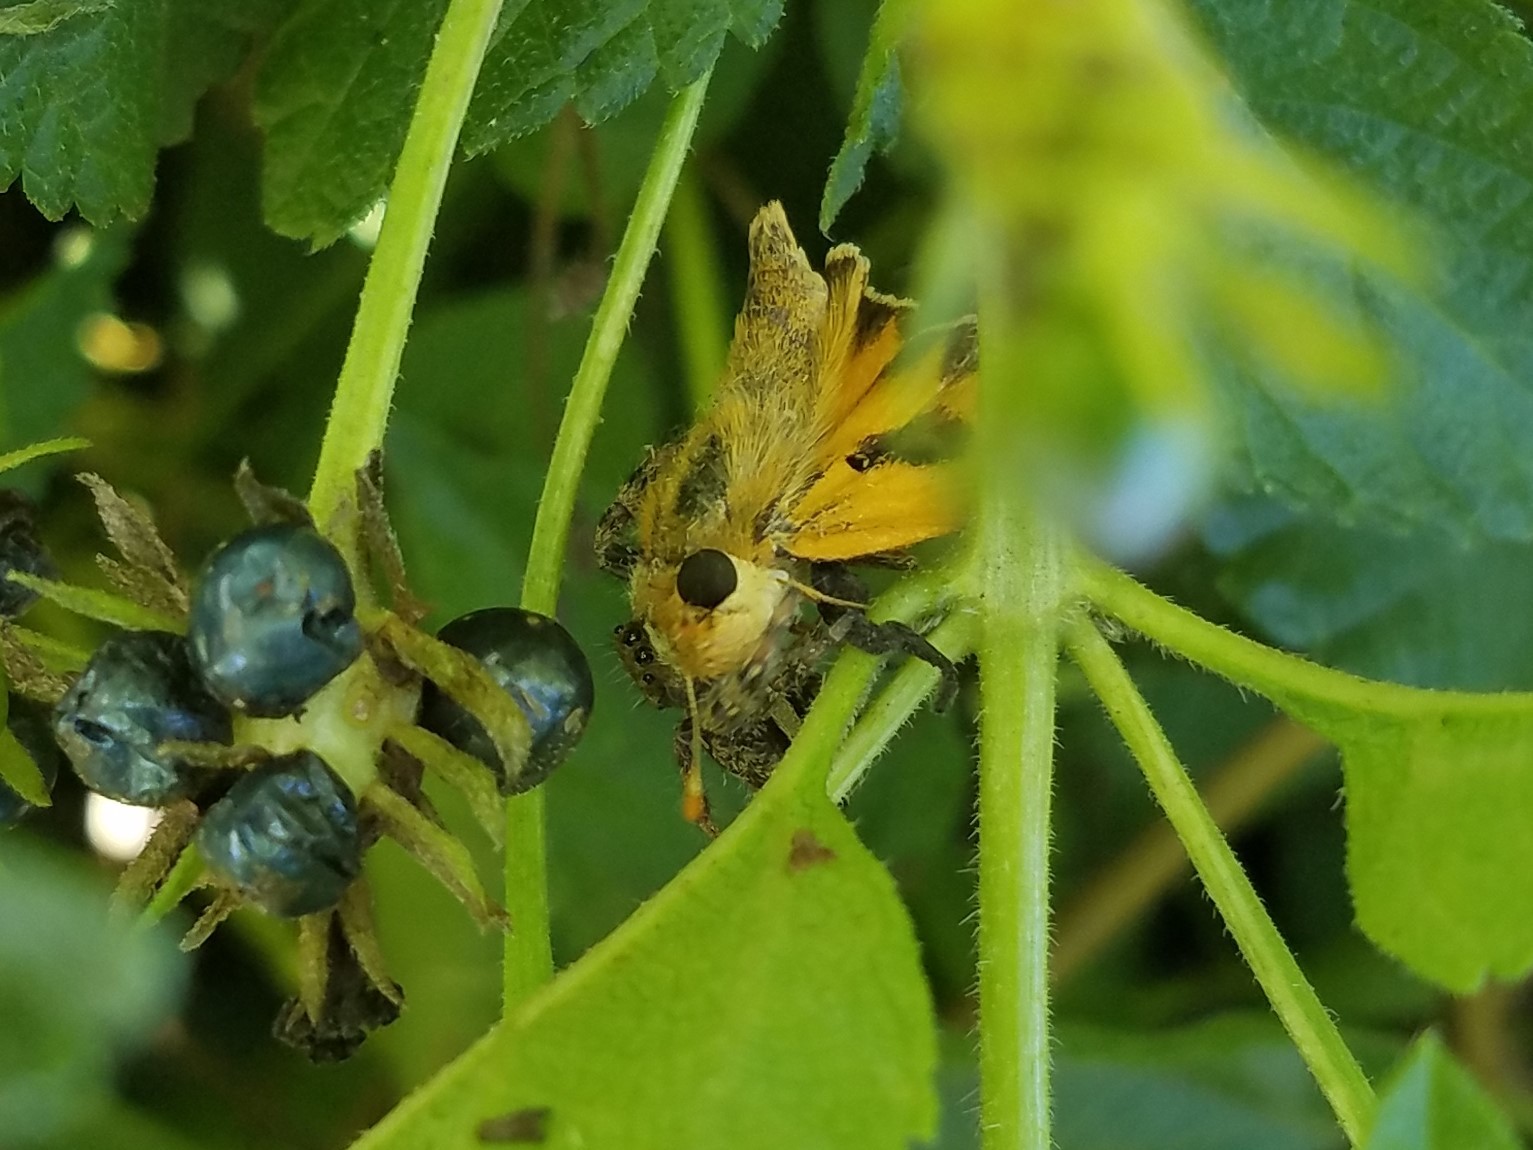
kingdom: Animalia
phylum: Arthropoda
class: Insecta
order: Lepidoptera
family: Hesperiidae
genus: Hylephila
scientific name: Hylephila phyleus
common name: Fiery skipper
